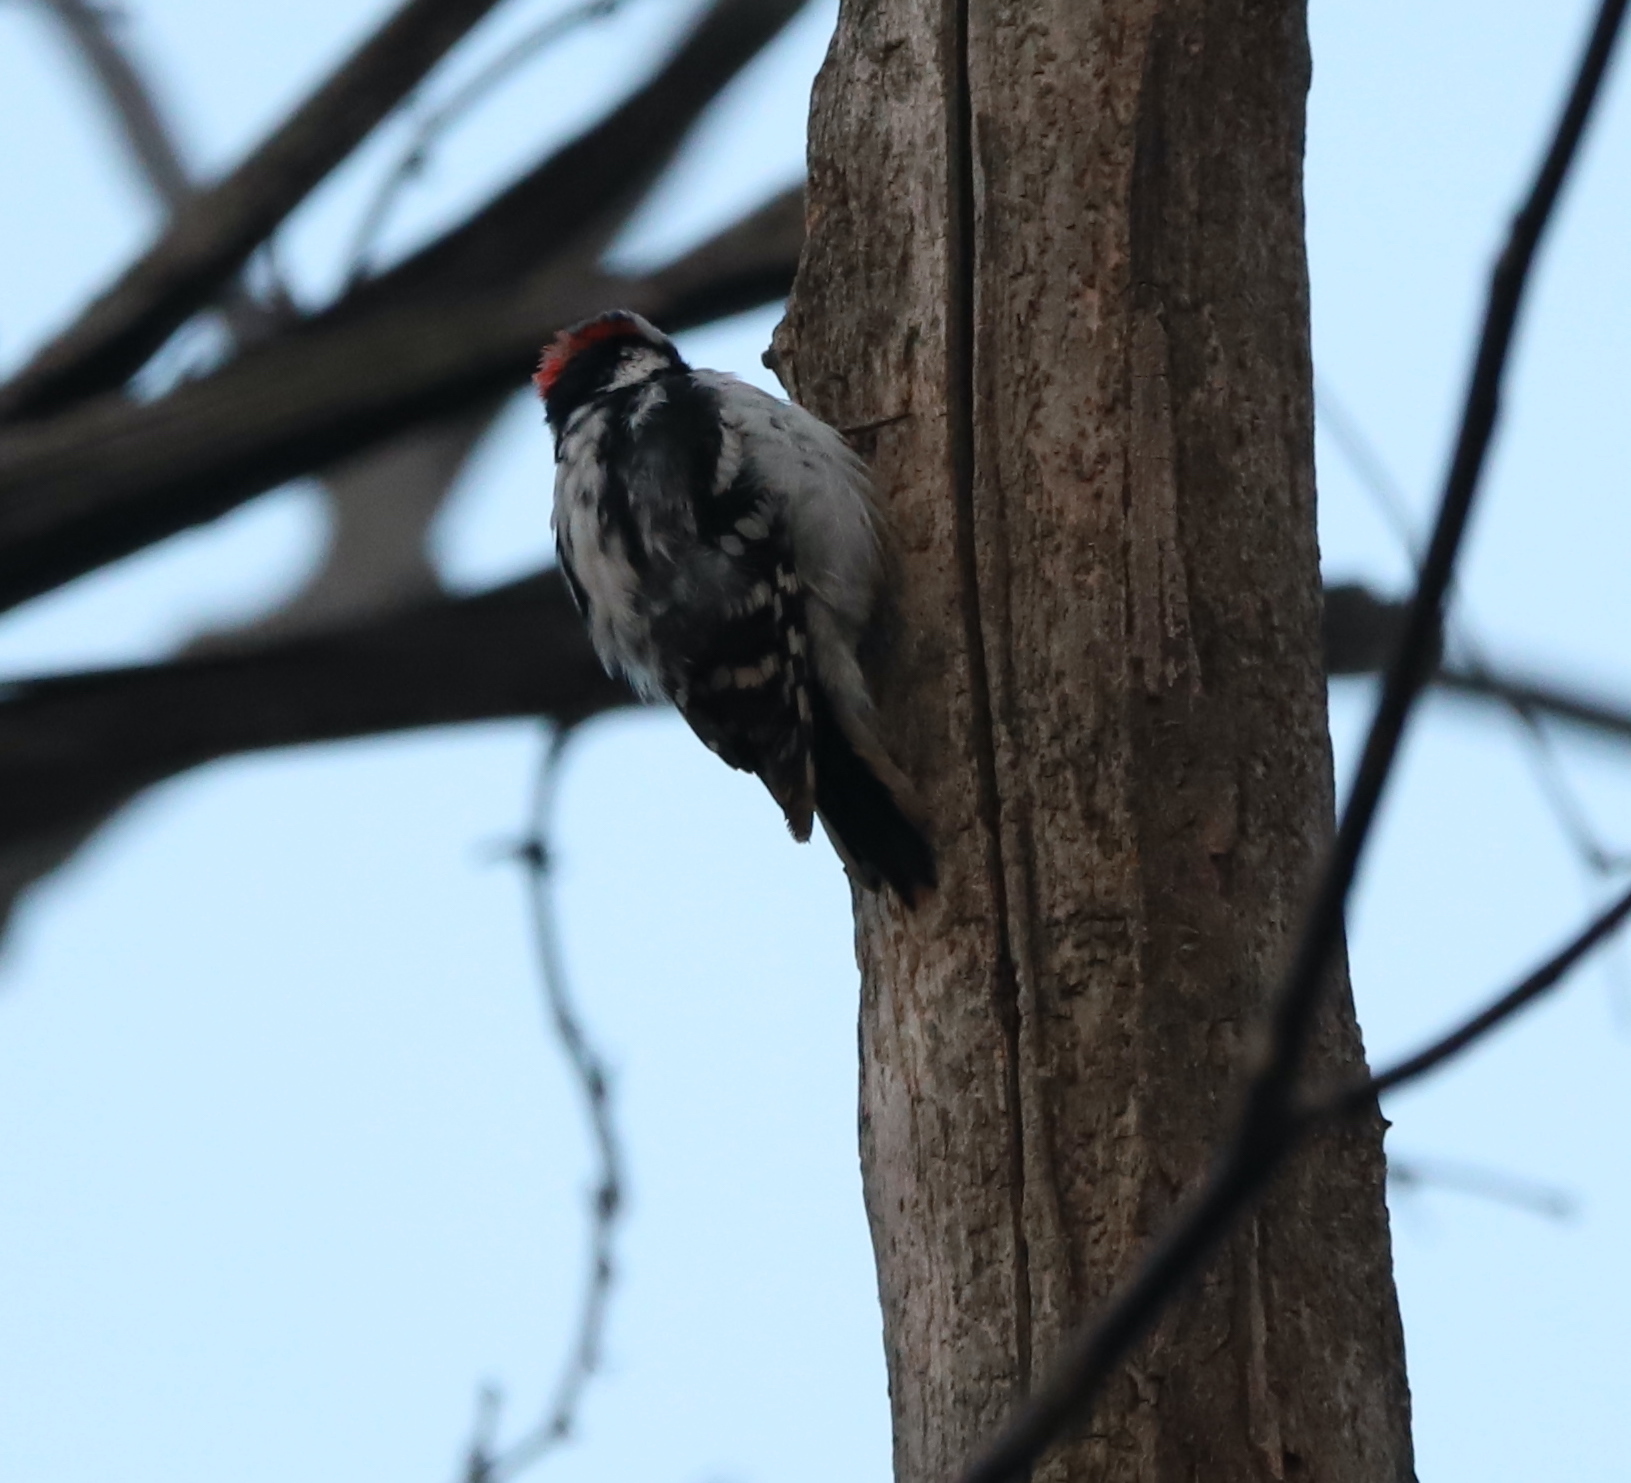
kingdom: Animalia
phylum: Chordata
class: Aves
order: Piciformes
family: Picidae
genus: Dryobates
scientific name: Dryobates pubescens
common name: Downy woodpecker
